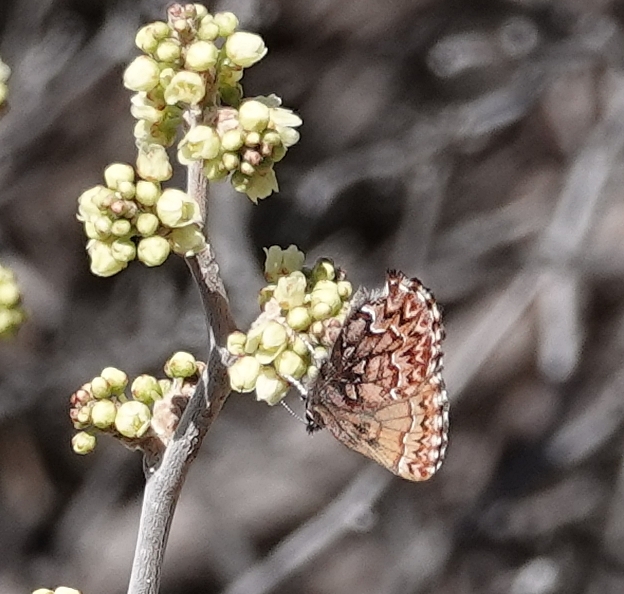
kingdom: Animalia
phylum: Arthropoda
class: Insecta
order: Lepidoptera
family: Lycaenidae
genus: Incisalia
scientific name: Incisalia eryphon
